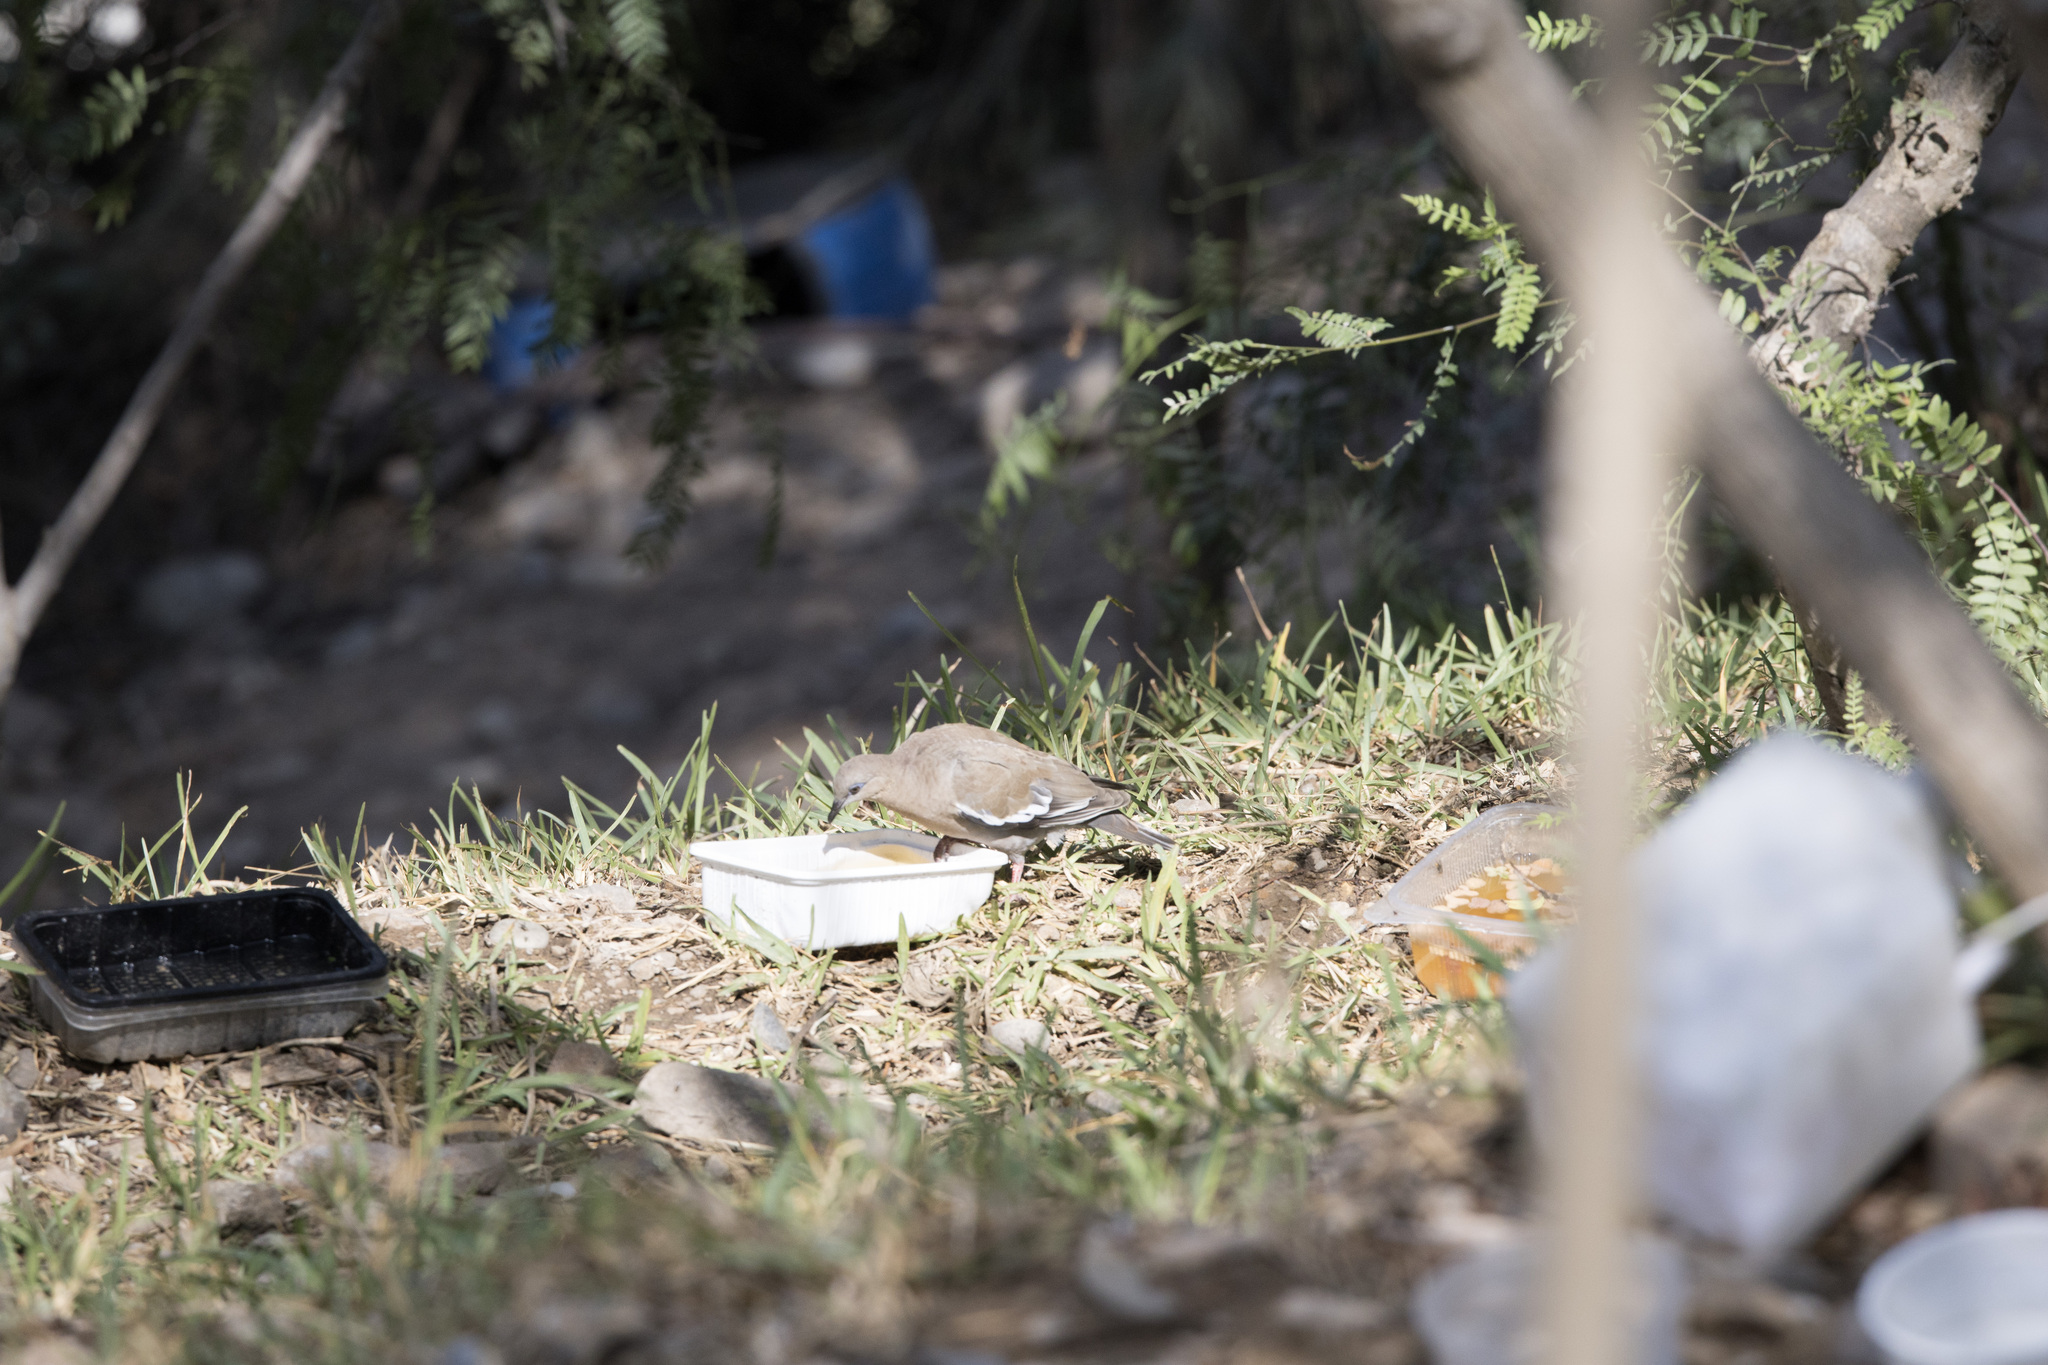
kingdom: Animalia
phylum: Chordata
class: Aves
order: Columbiformes
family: Columbidae
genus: Zenaida
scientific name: Zenaida meloda
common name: West peruvian dove
